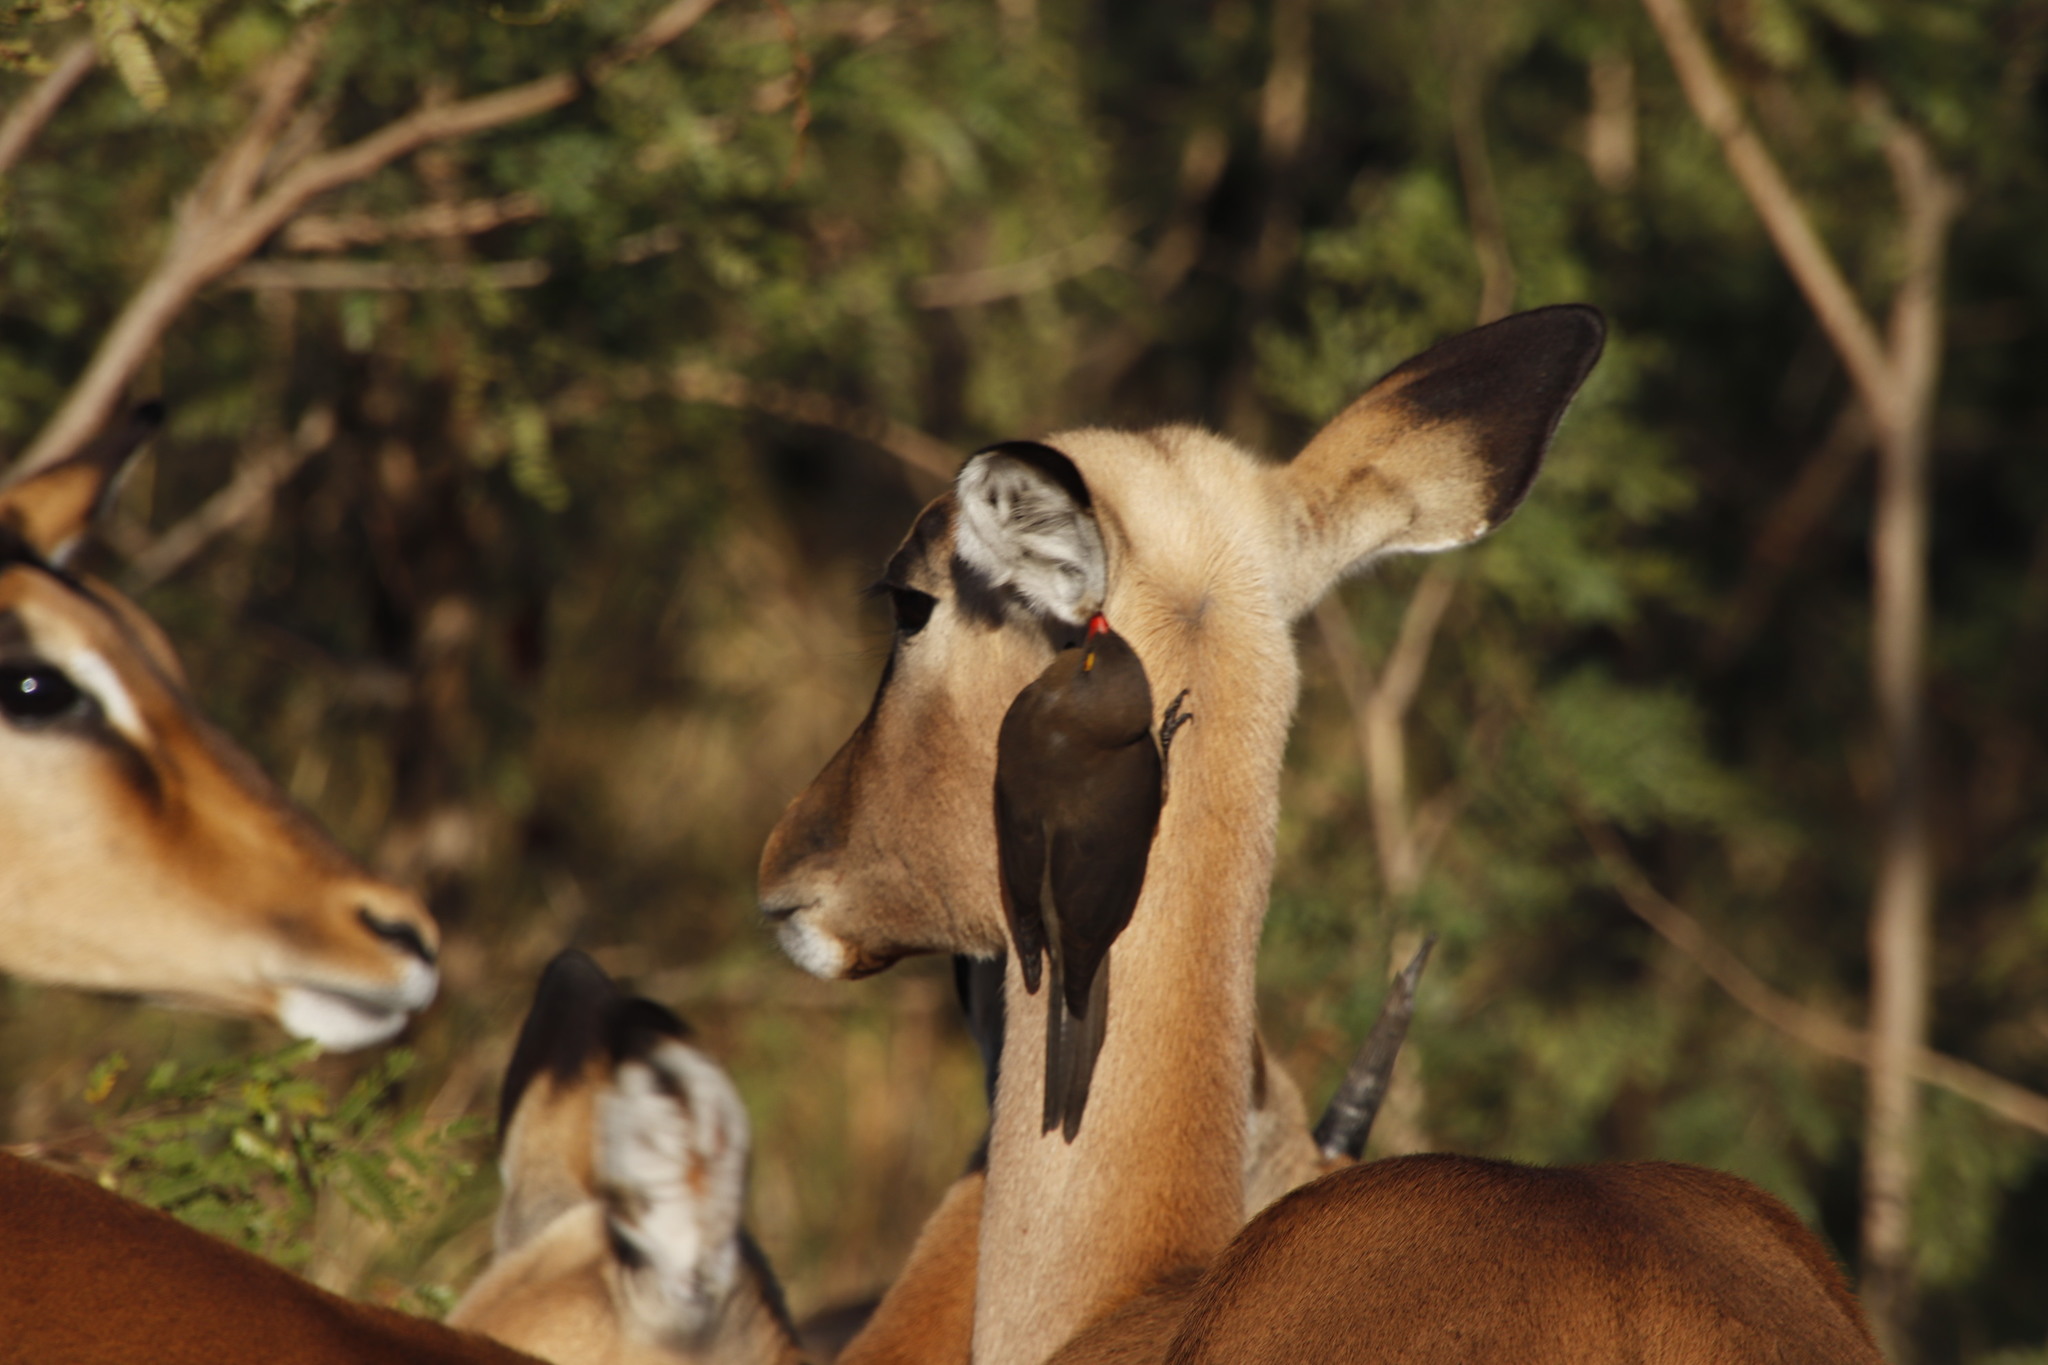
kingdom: Animalia
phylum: Chordata
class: Mammalia
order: Artiodactyla
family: Bovidae
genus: Aepyceros
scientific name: Aepyceros melampus
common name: Impala
